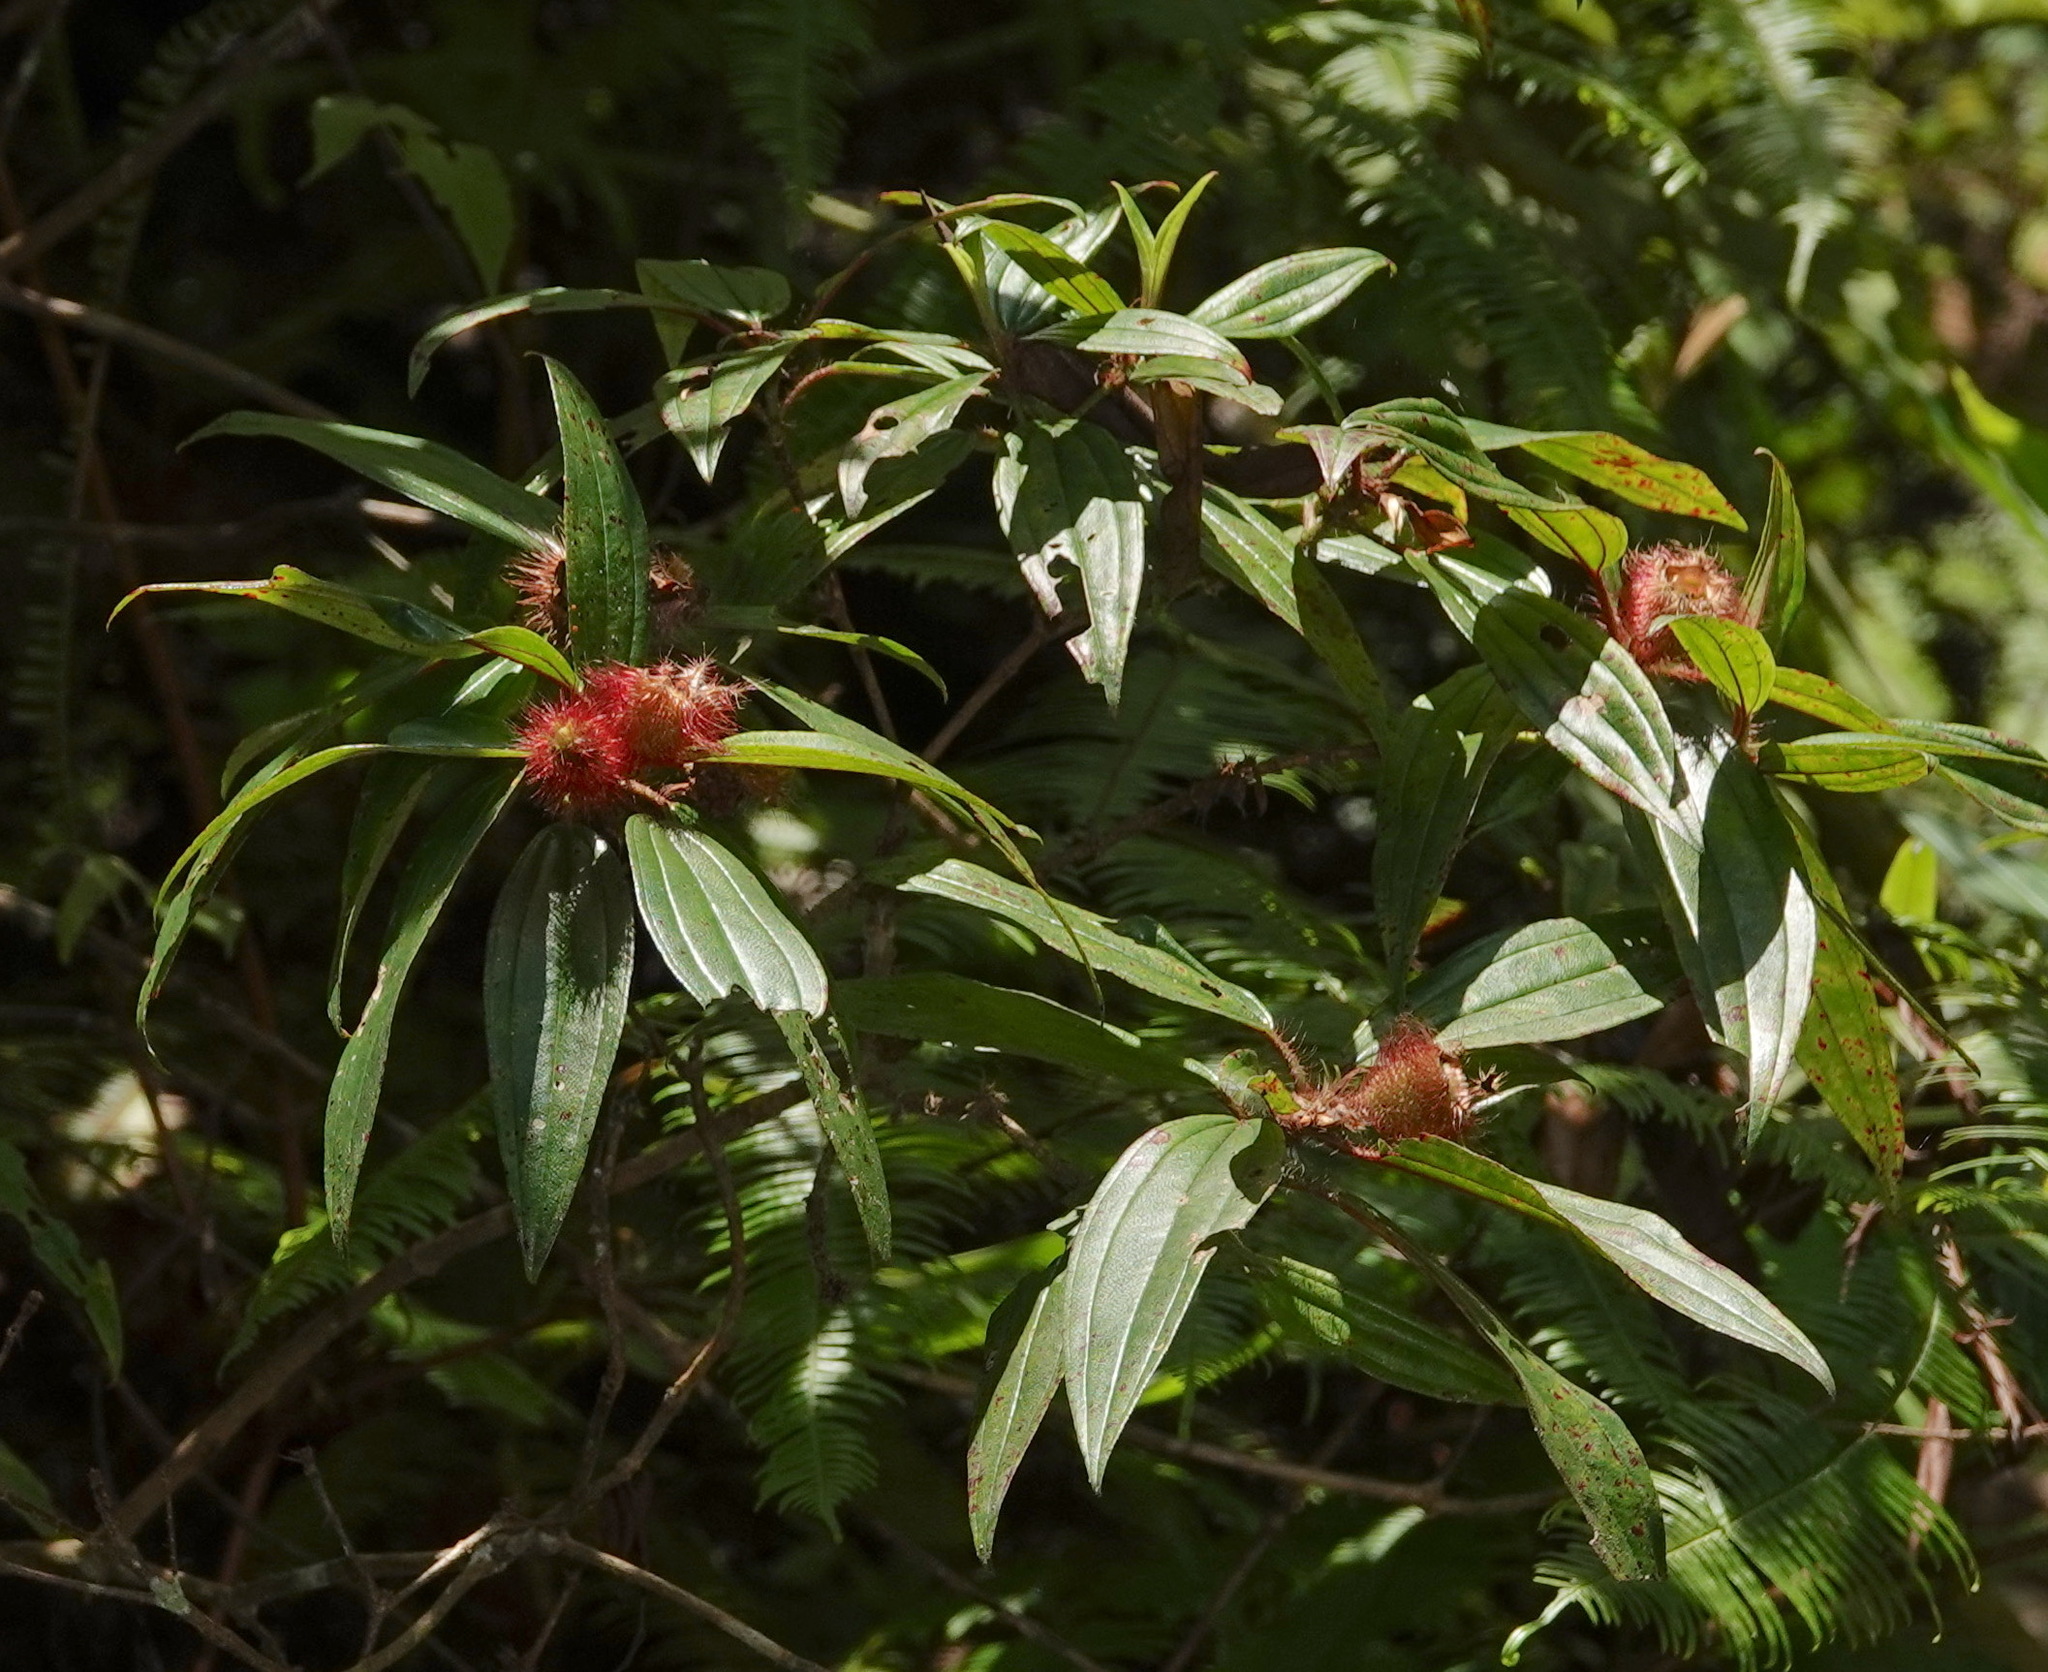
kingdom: Plantae
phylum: Tracheophyta
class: Magnoliopsida
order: Myrtales
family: Melastomataceae
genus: Melastoma
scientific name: Melastoma sanguineum
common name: Red melastome
